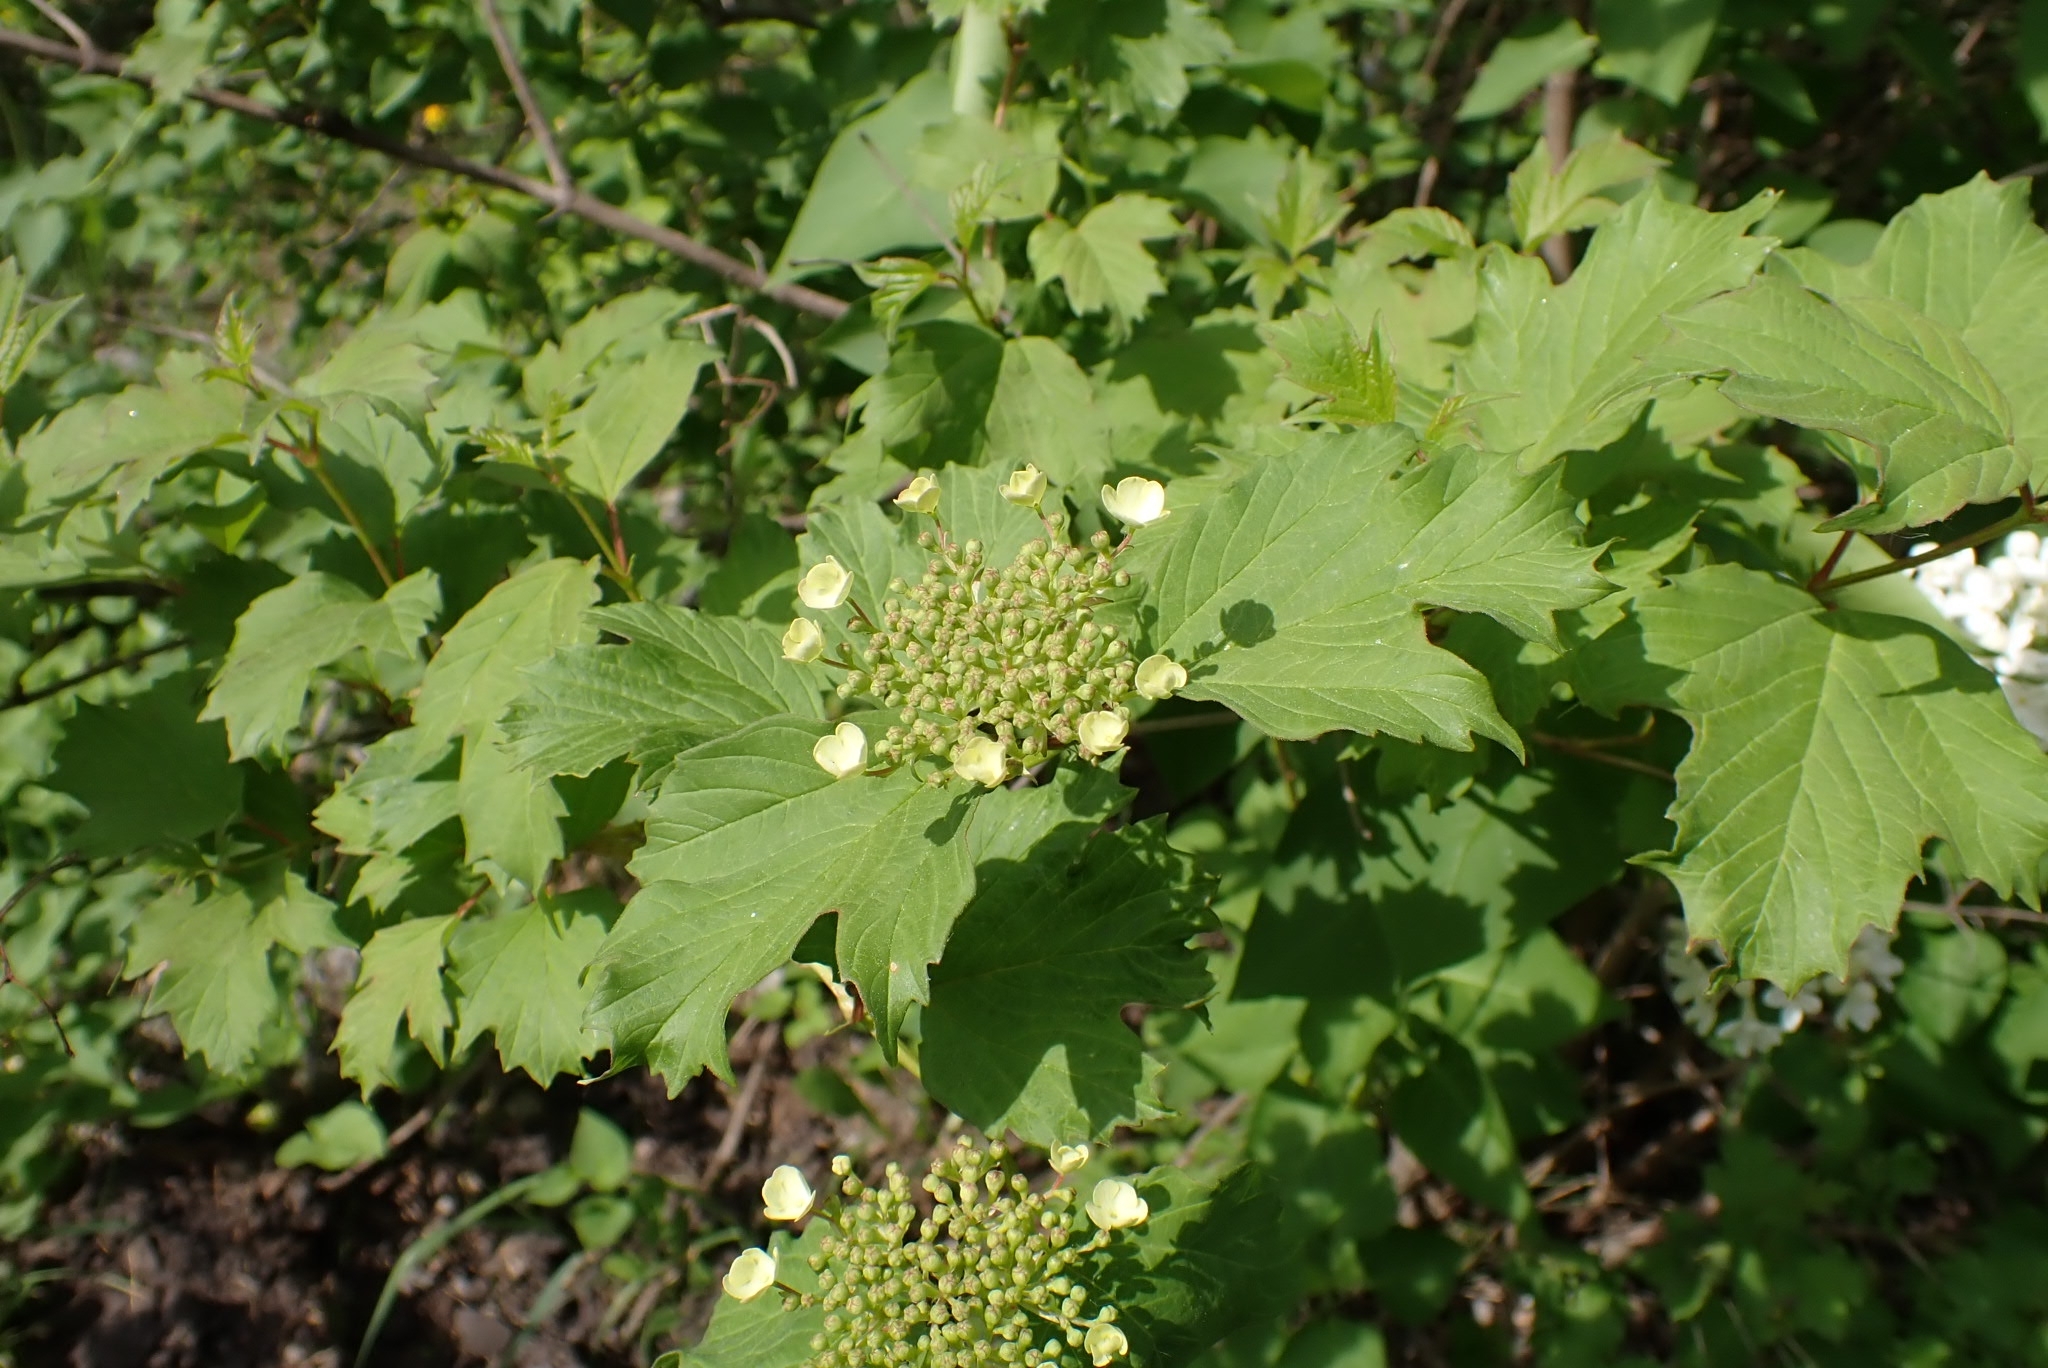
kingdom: Plantae
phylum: Tracheophyta
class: Magnoliopsida
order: Dipsacales
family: Viburnaceae
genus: Viburnum
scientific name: Viburnum opulus
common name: Guelder-rose
